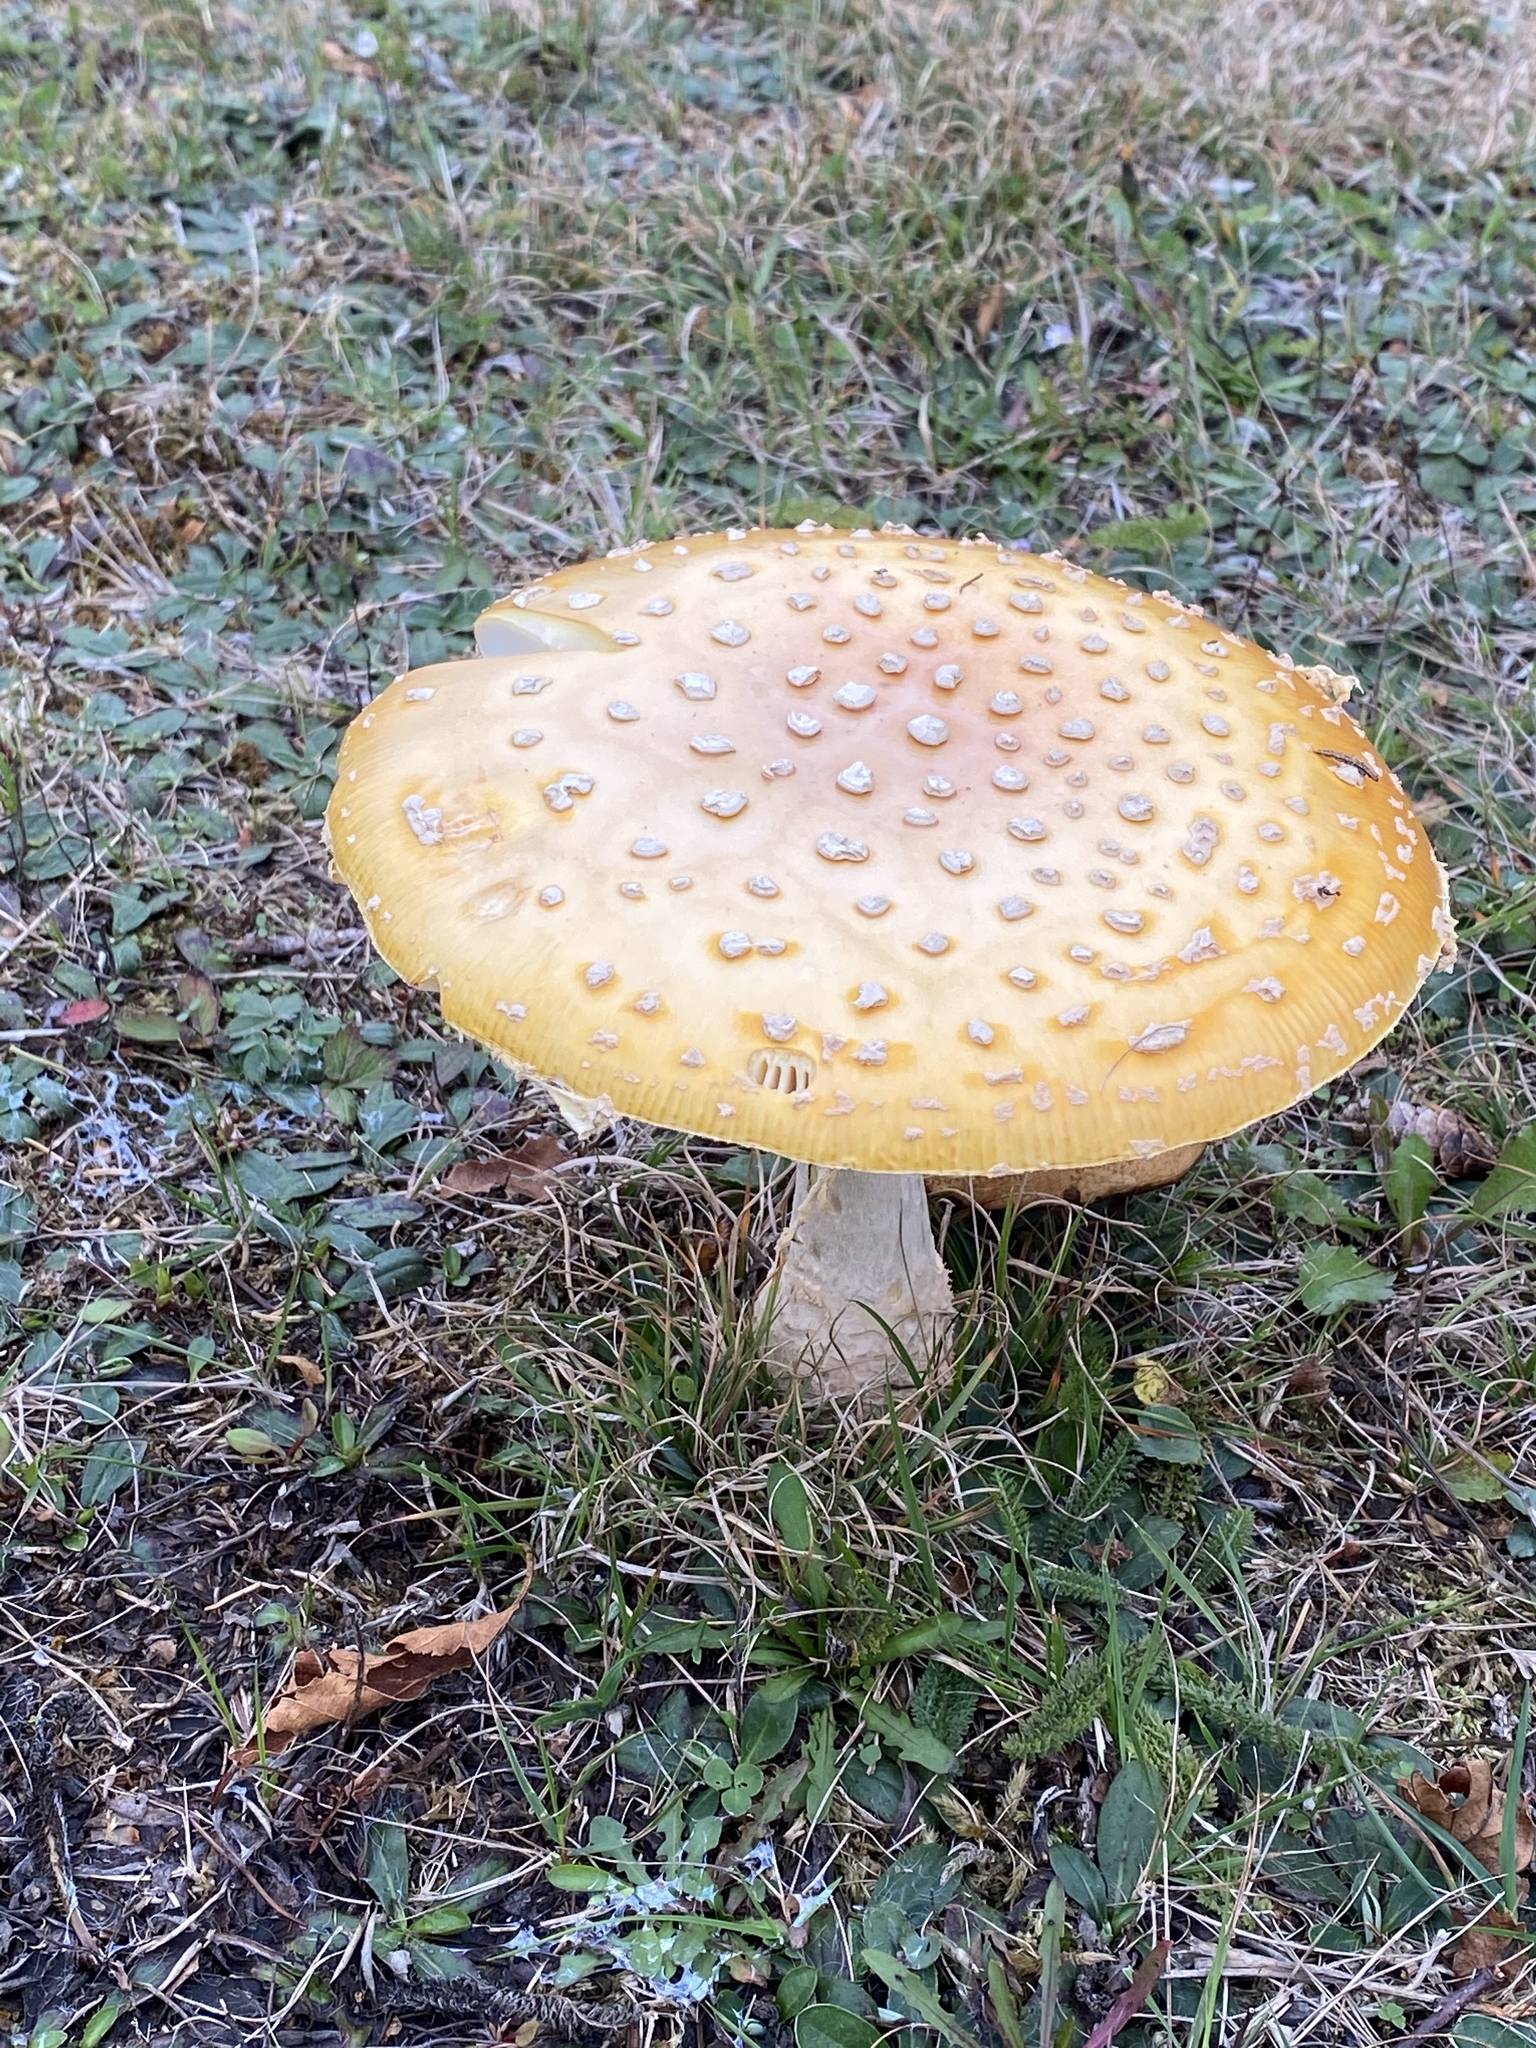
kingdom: Fungi
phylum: Basidiomycota
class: Agaricomycetes
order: Agaricales
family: Amanitaceae
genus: Amanita
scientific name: Amanita muscaria
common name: Fly agaric
